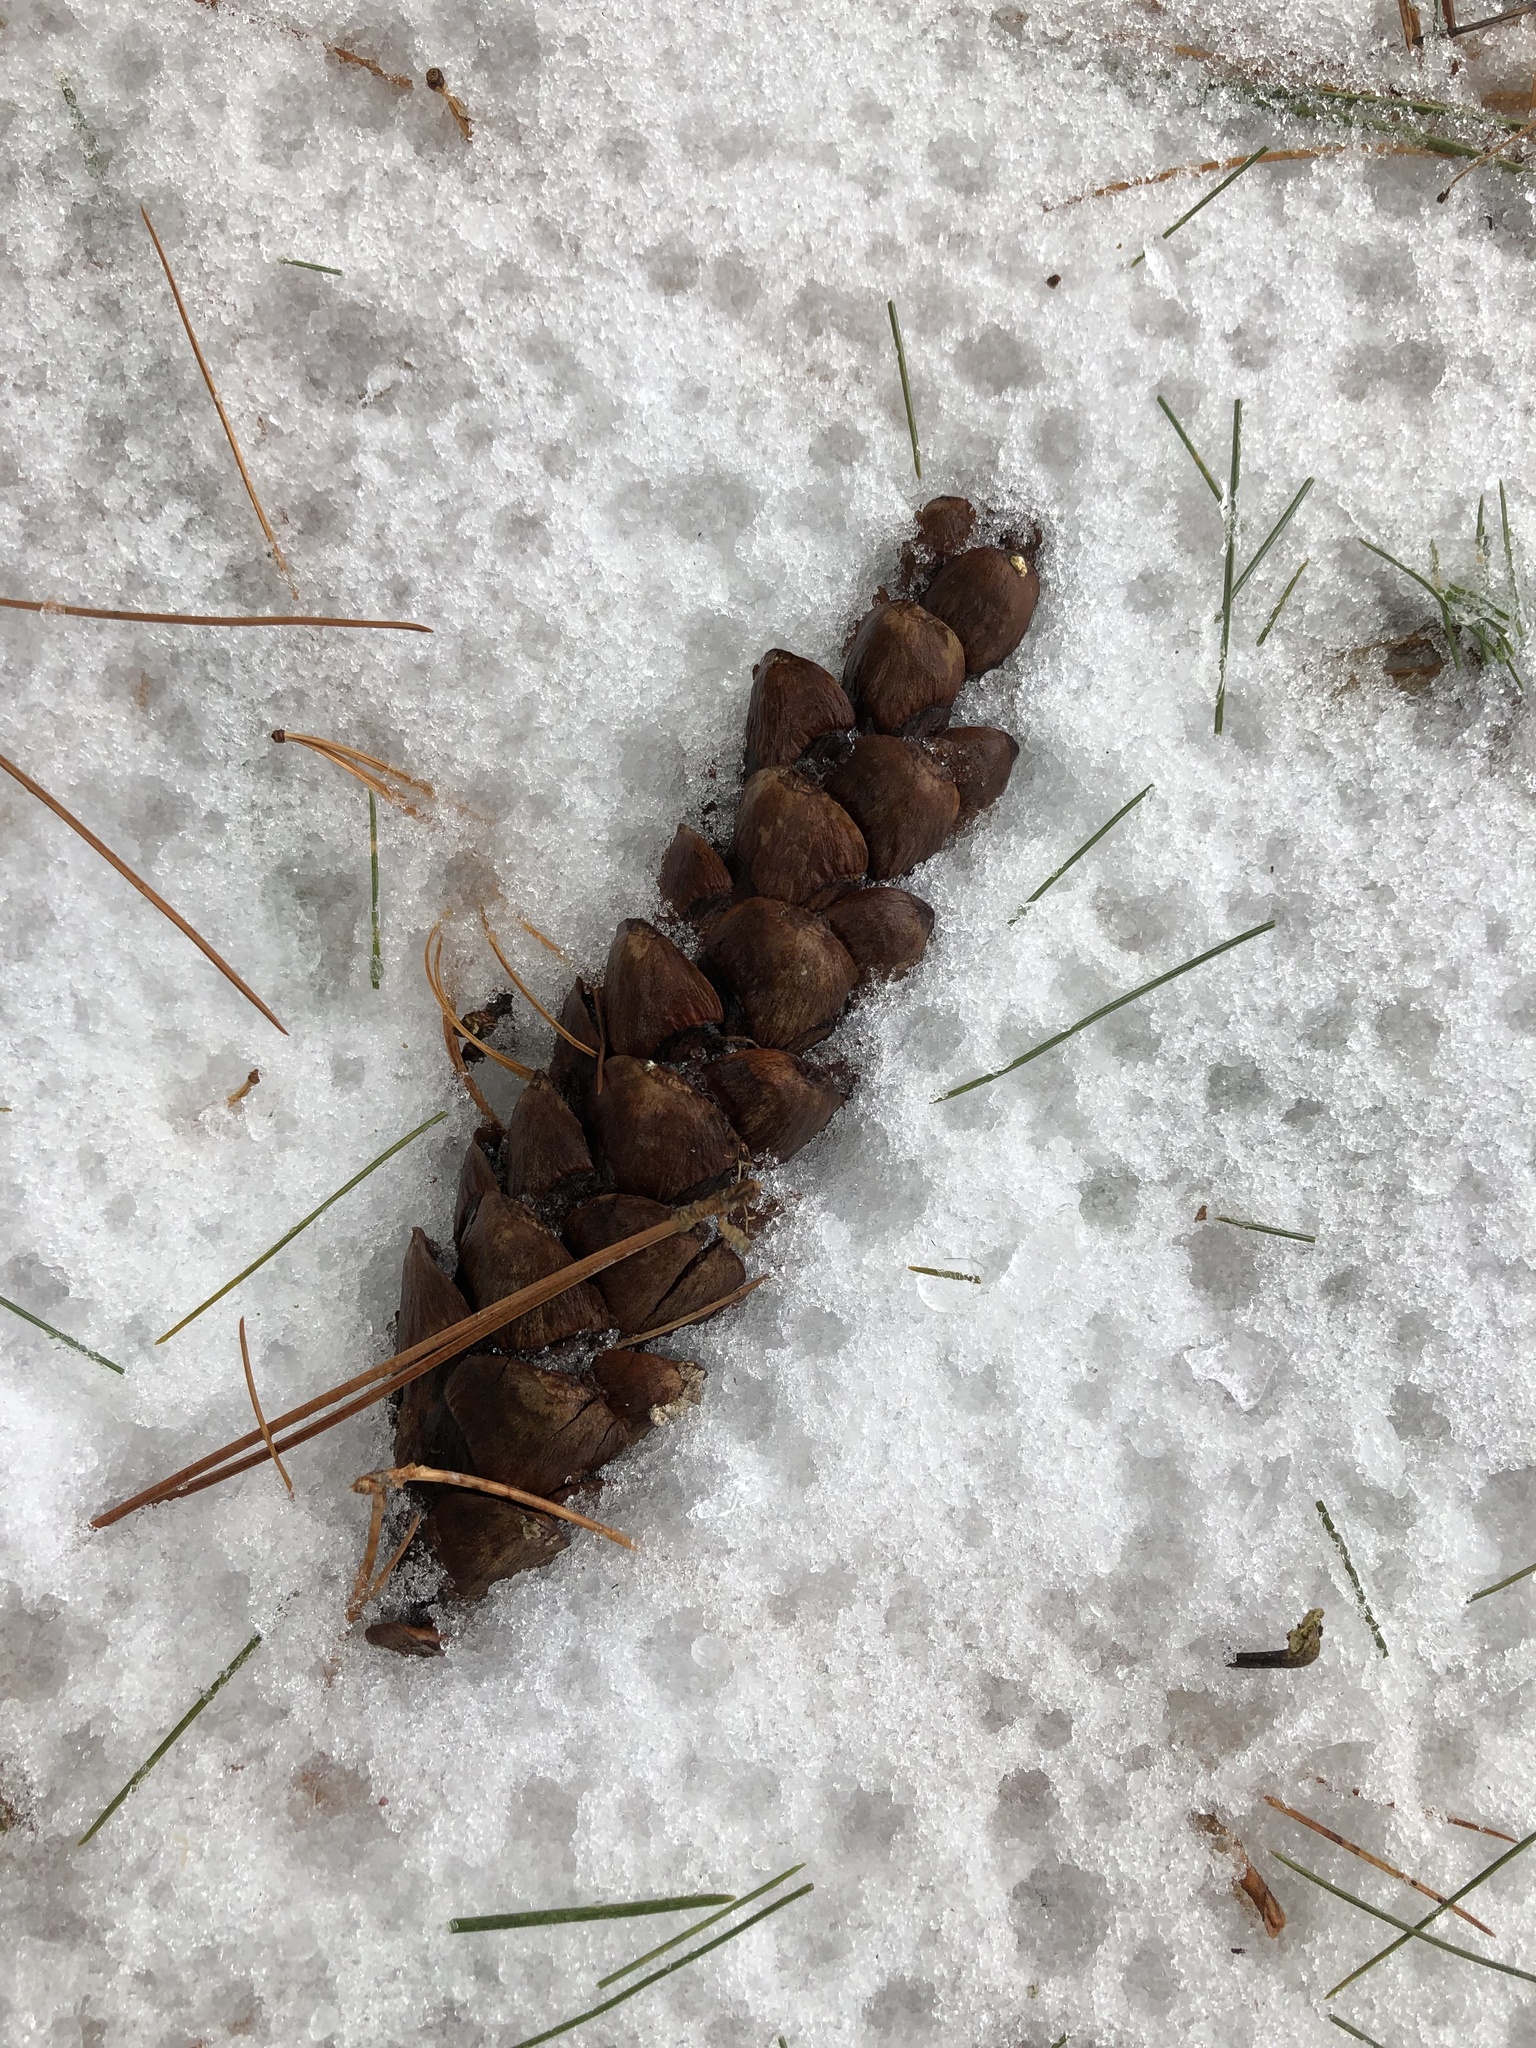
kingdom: Plantae
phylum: Tracheophyta
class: Pinopsida
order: Pinales
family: Pinaceae
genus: Pinus
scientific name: Pinus strobus
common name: Weymouth pine
